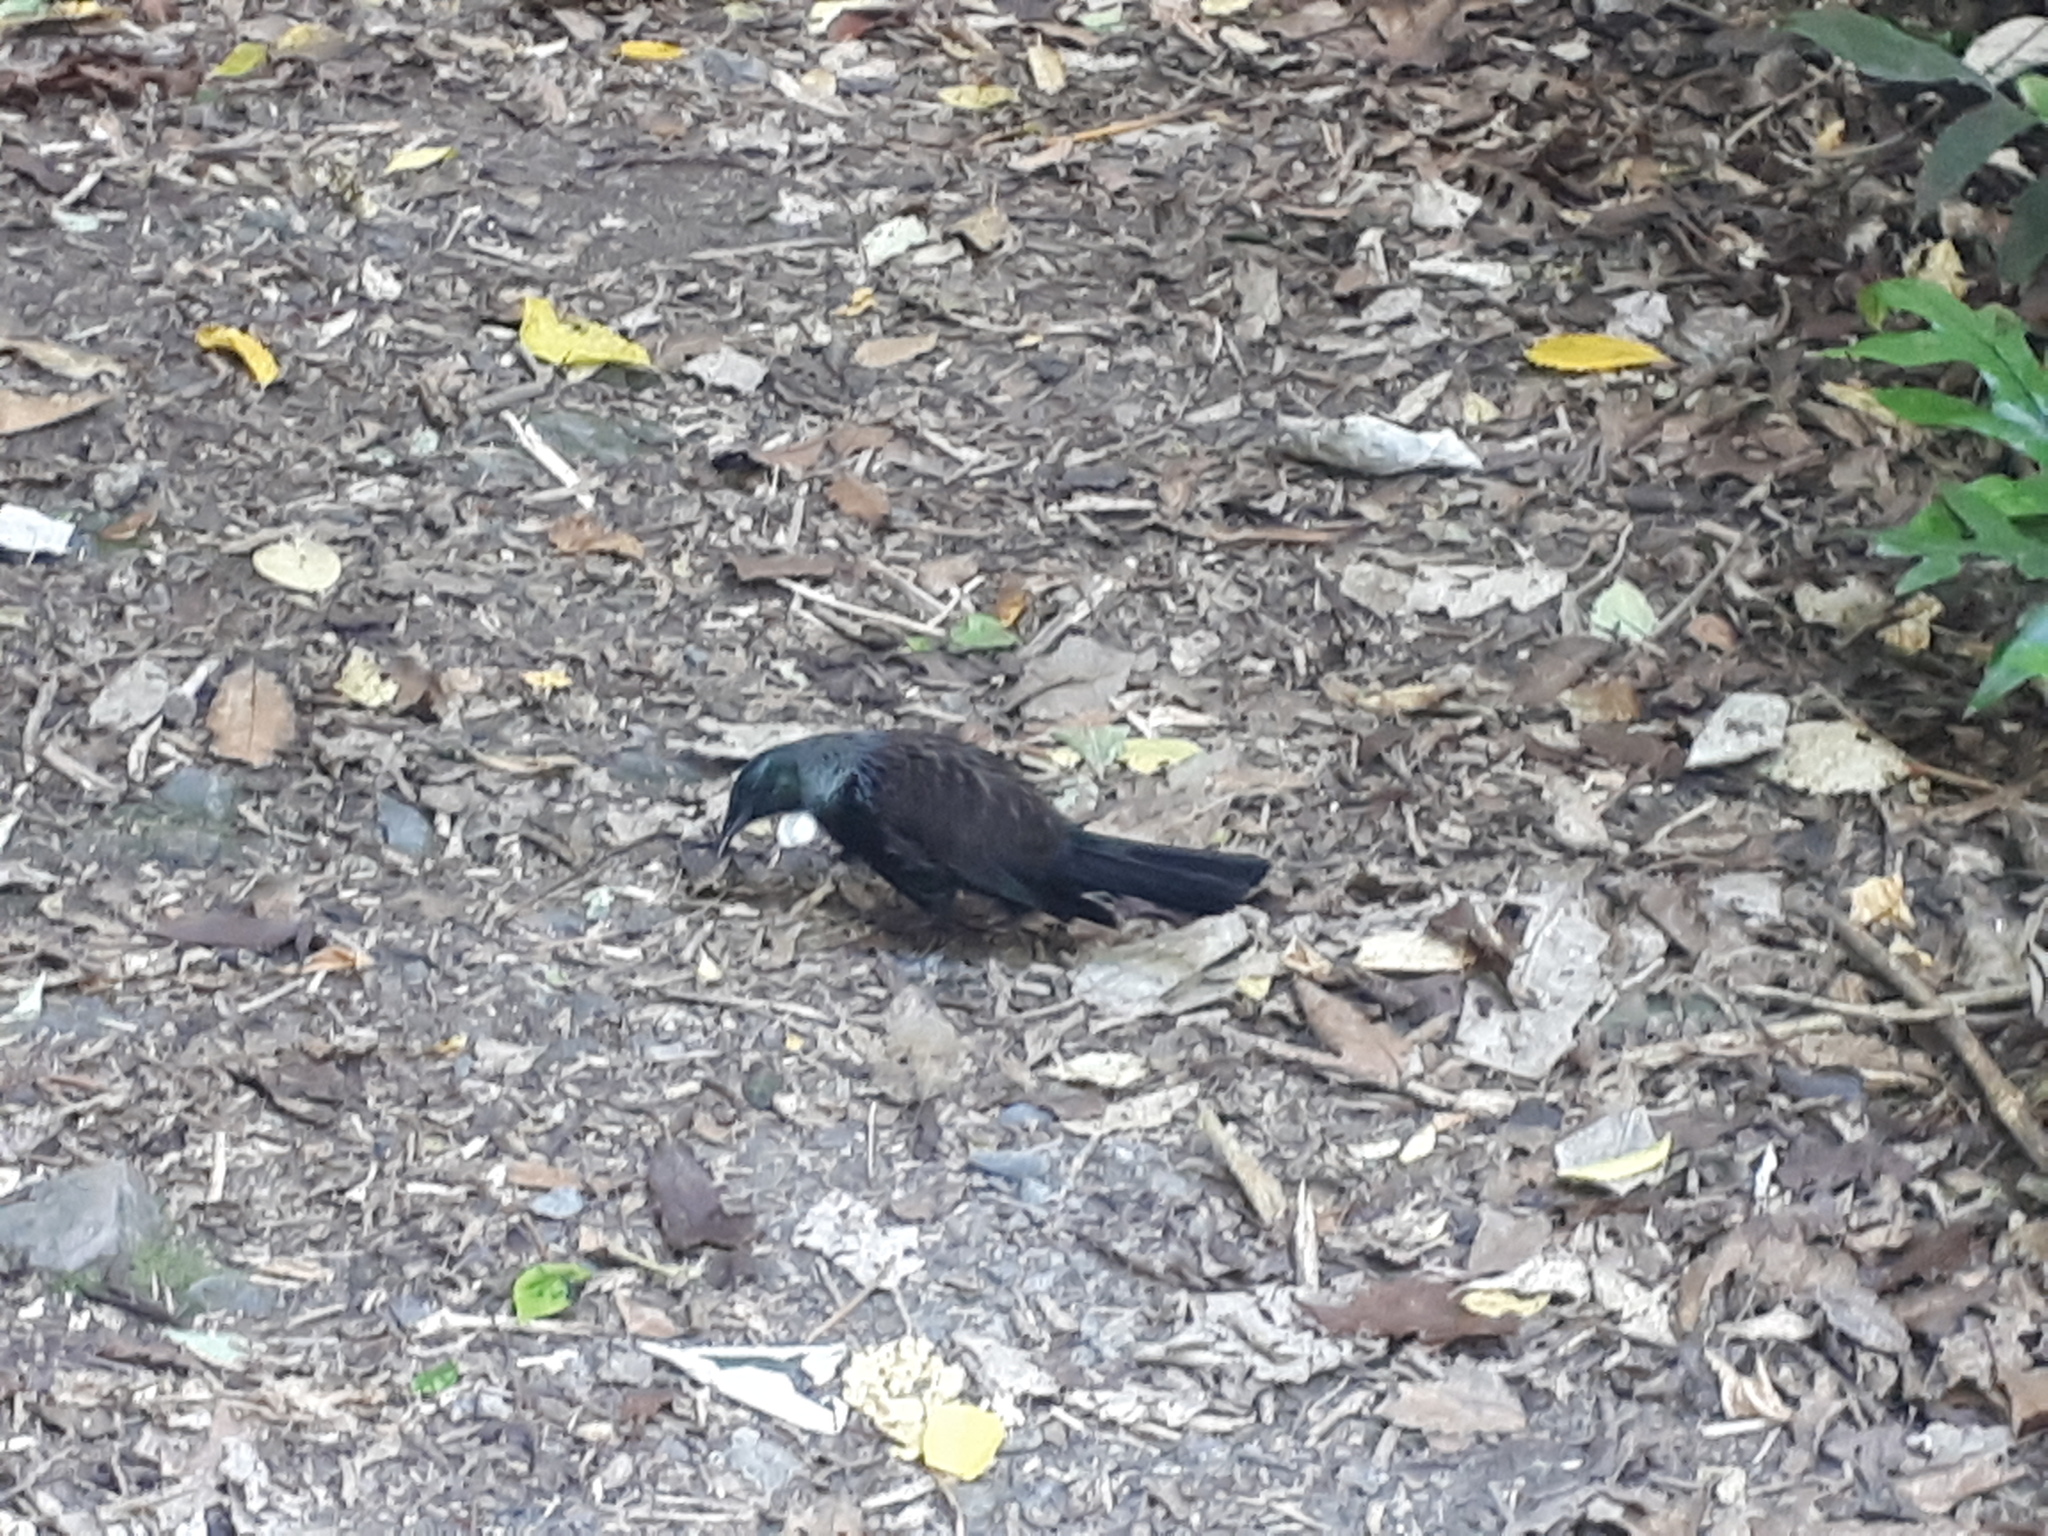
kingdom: Animalia
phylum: Chordata
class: Aves
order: Passeriformes
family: Meliphagidae
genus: Prosthemadera
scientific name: Prosthemadera novaeseelandiae
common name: Tui
